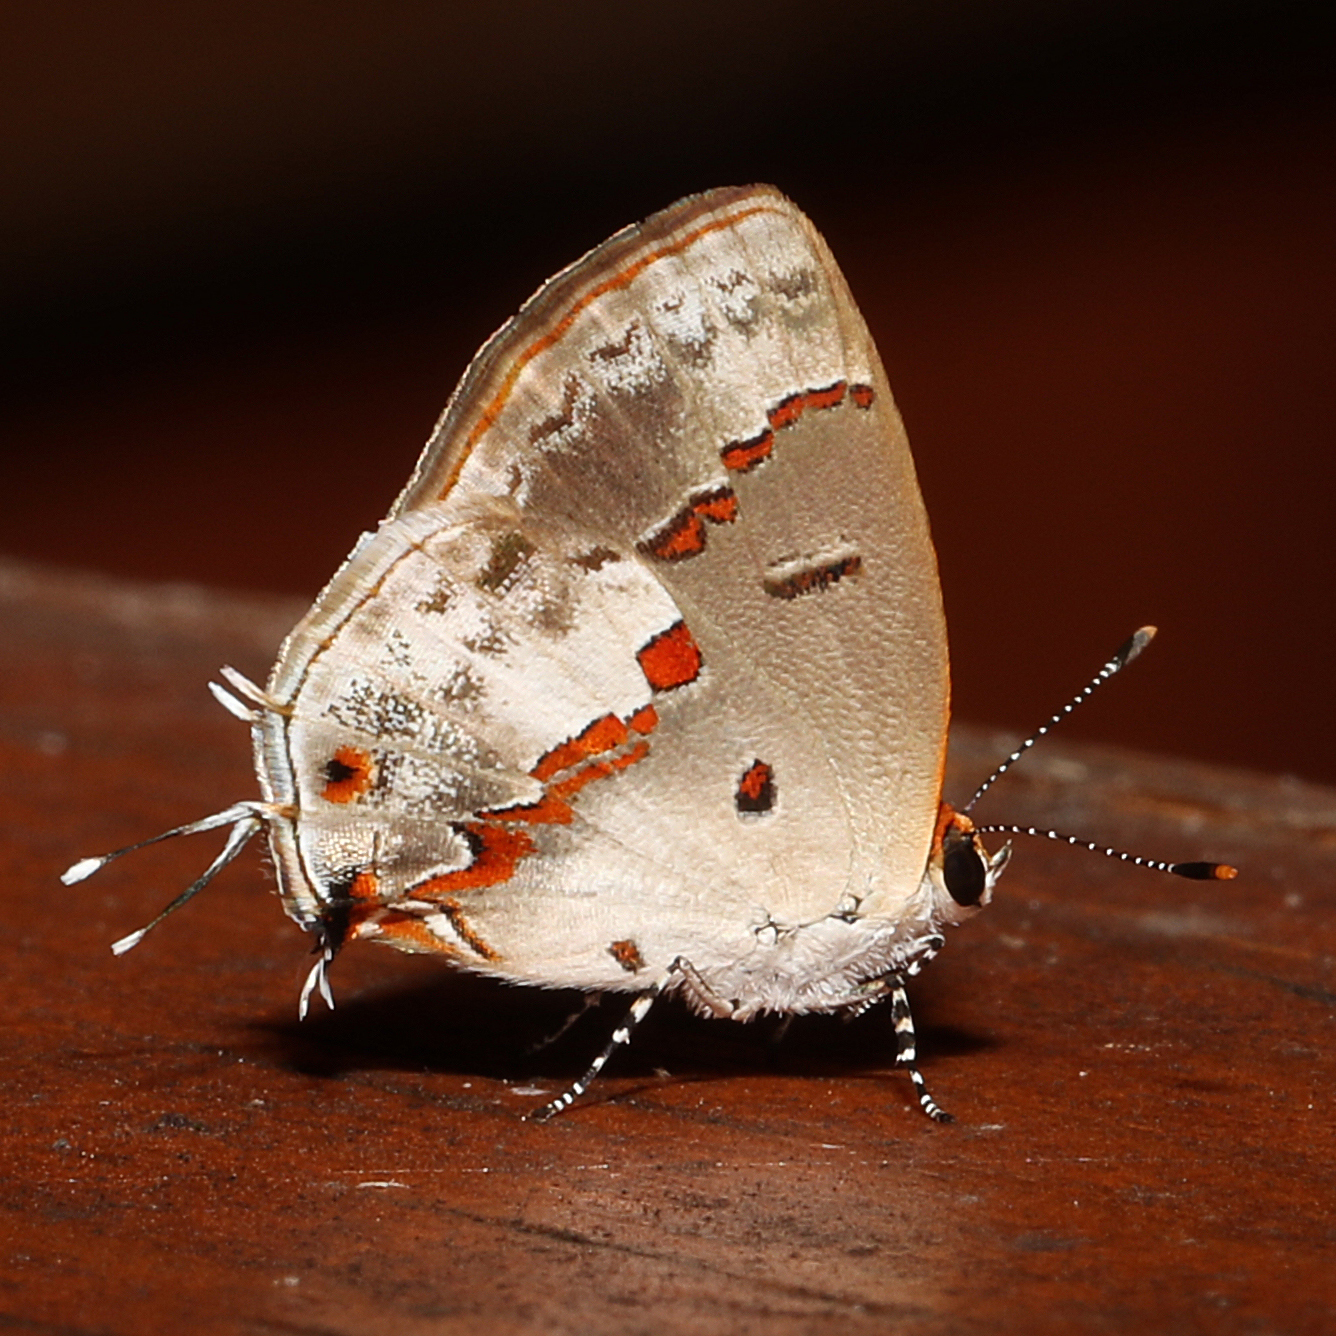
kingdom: Animalia
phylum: Arthropoda
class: Insecta
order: Lepidoptera
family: Lycaenidae
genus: Thecla
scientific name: Thecla zilda
